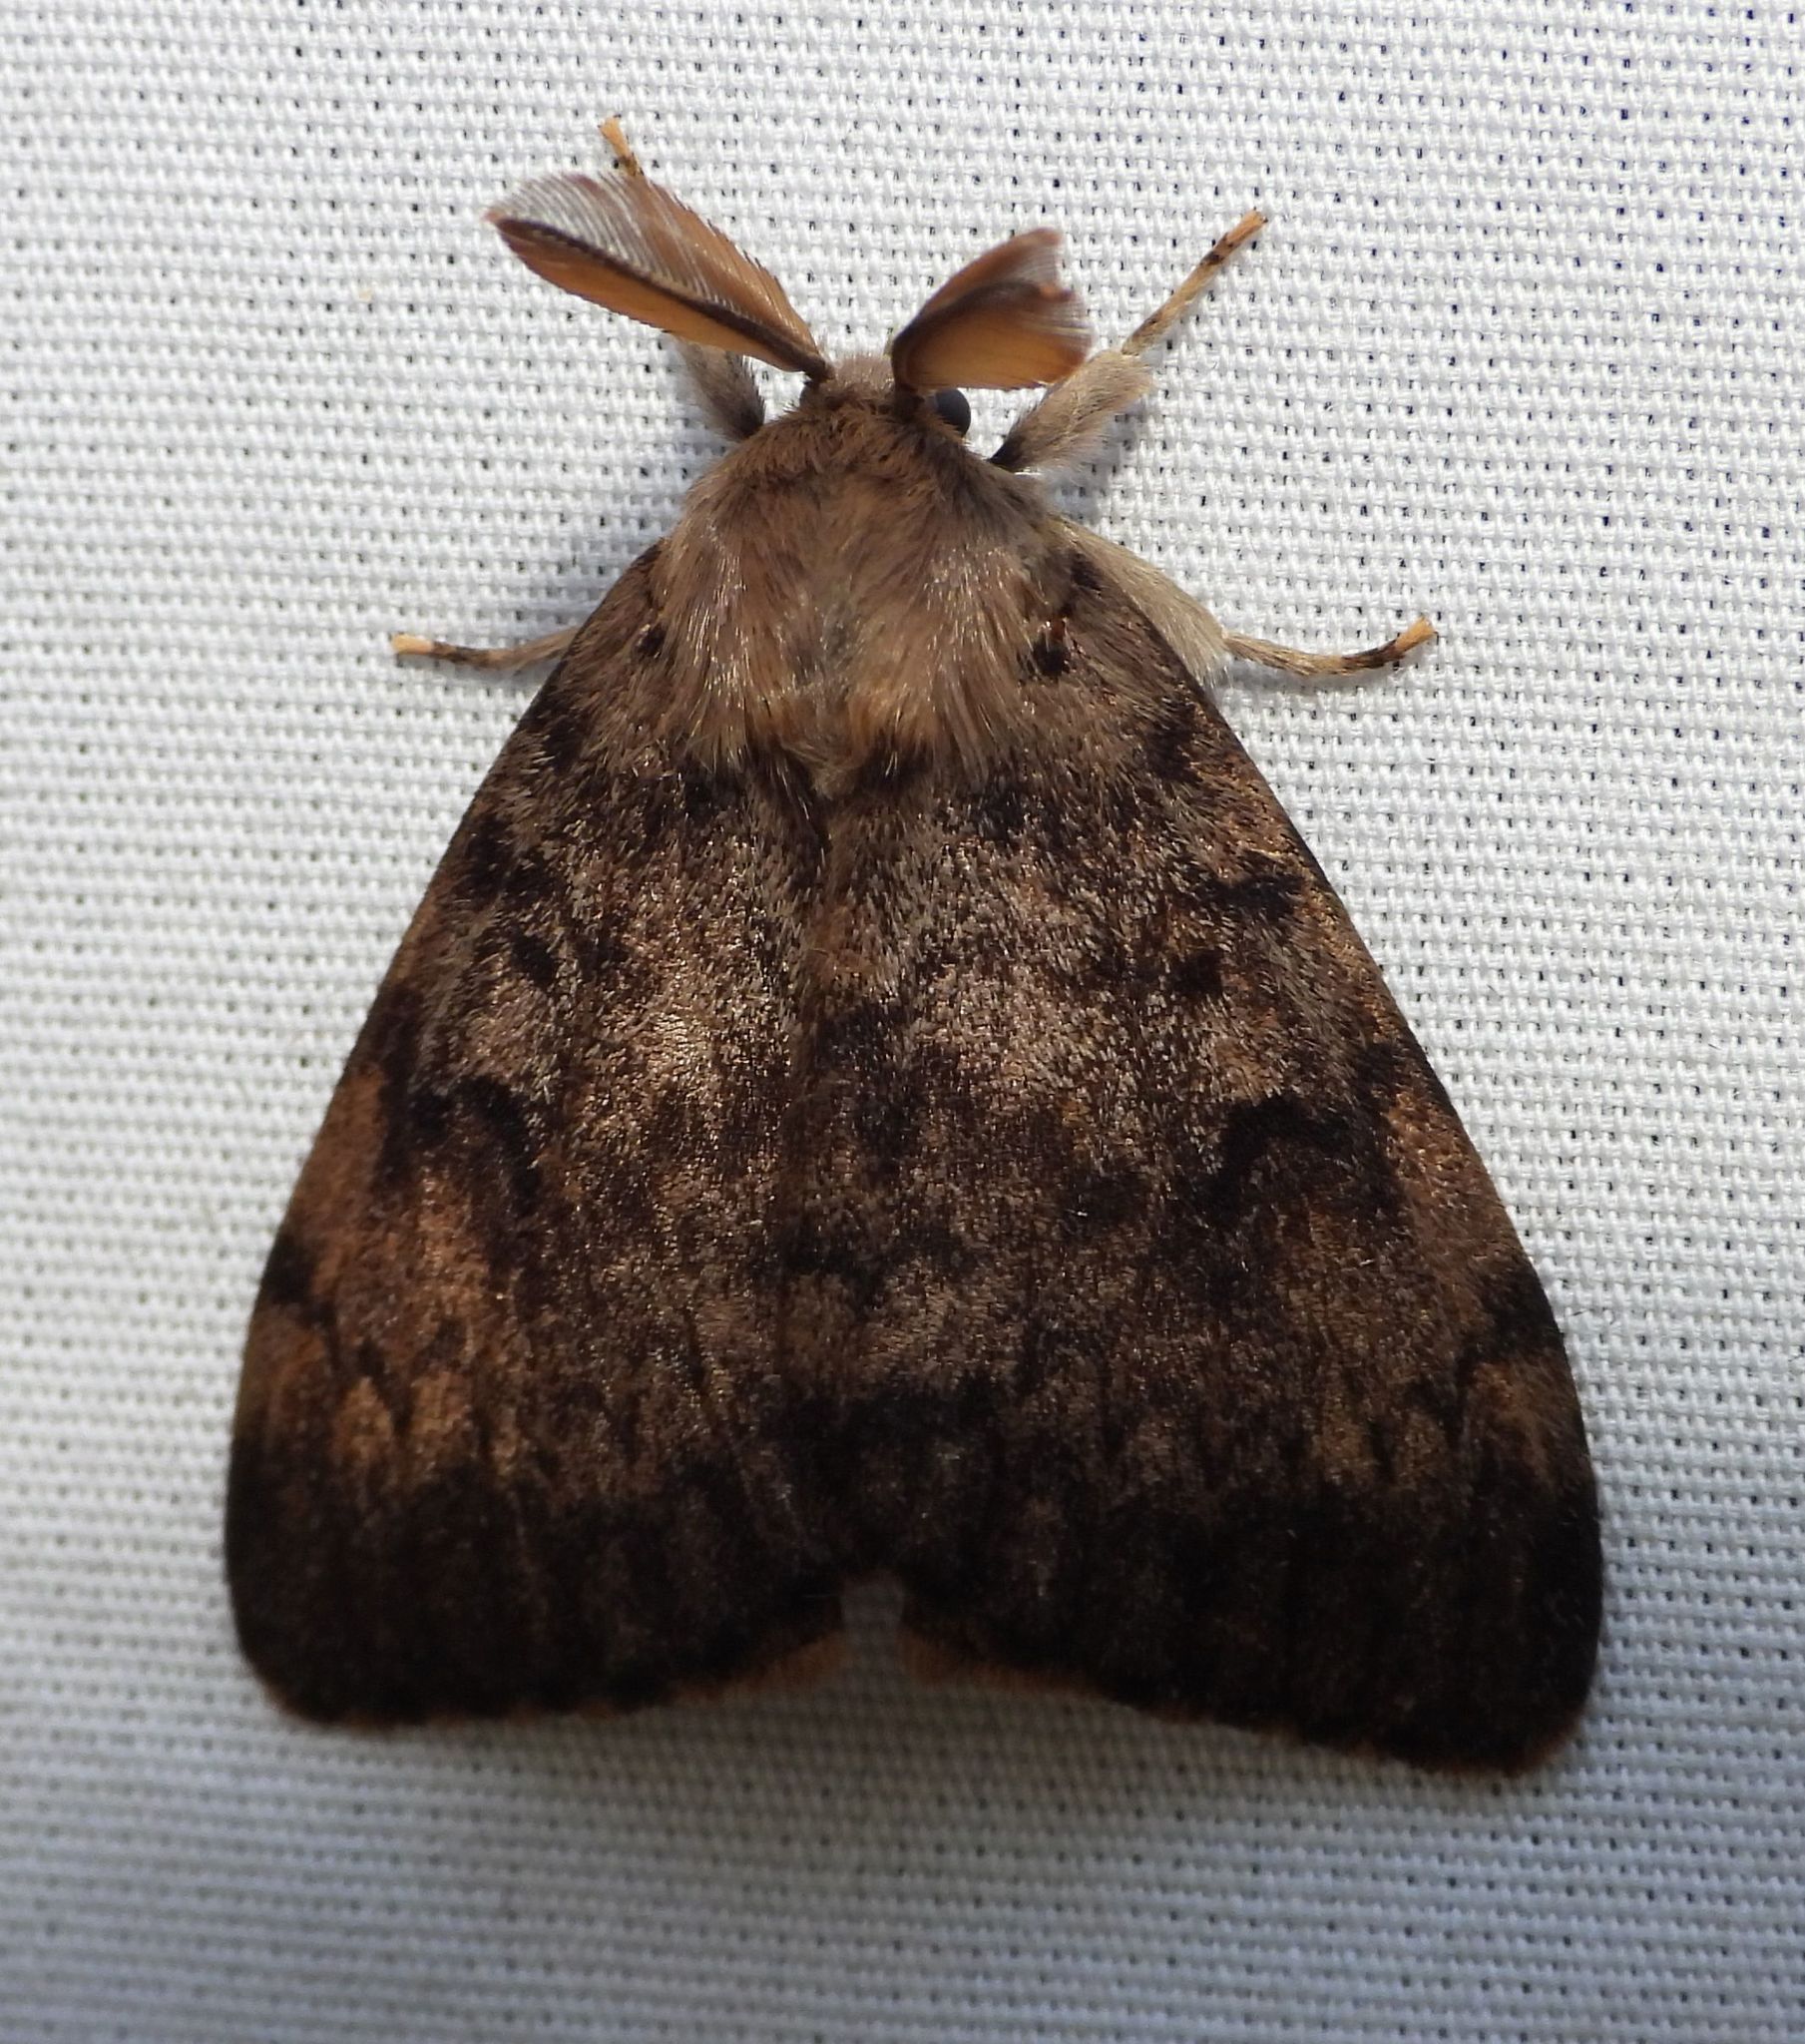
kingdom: Animalia
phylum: Arthropoda
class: Insecta
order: Lepidoptera
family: Erebidae
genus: Lymantria
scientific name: Lymantria dispar
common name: Gypsy moth
